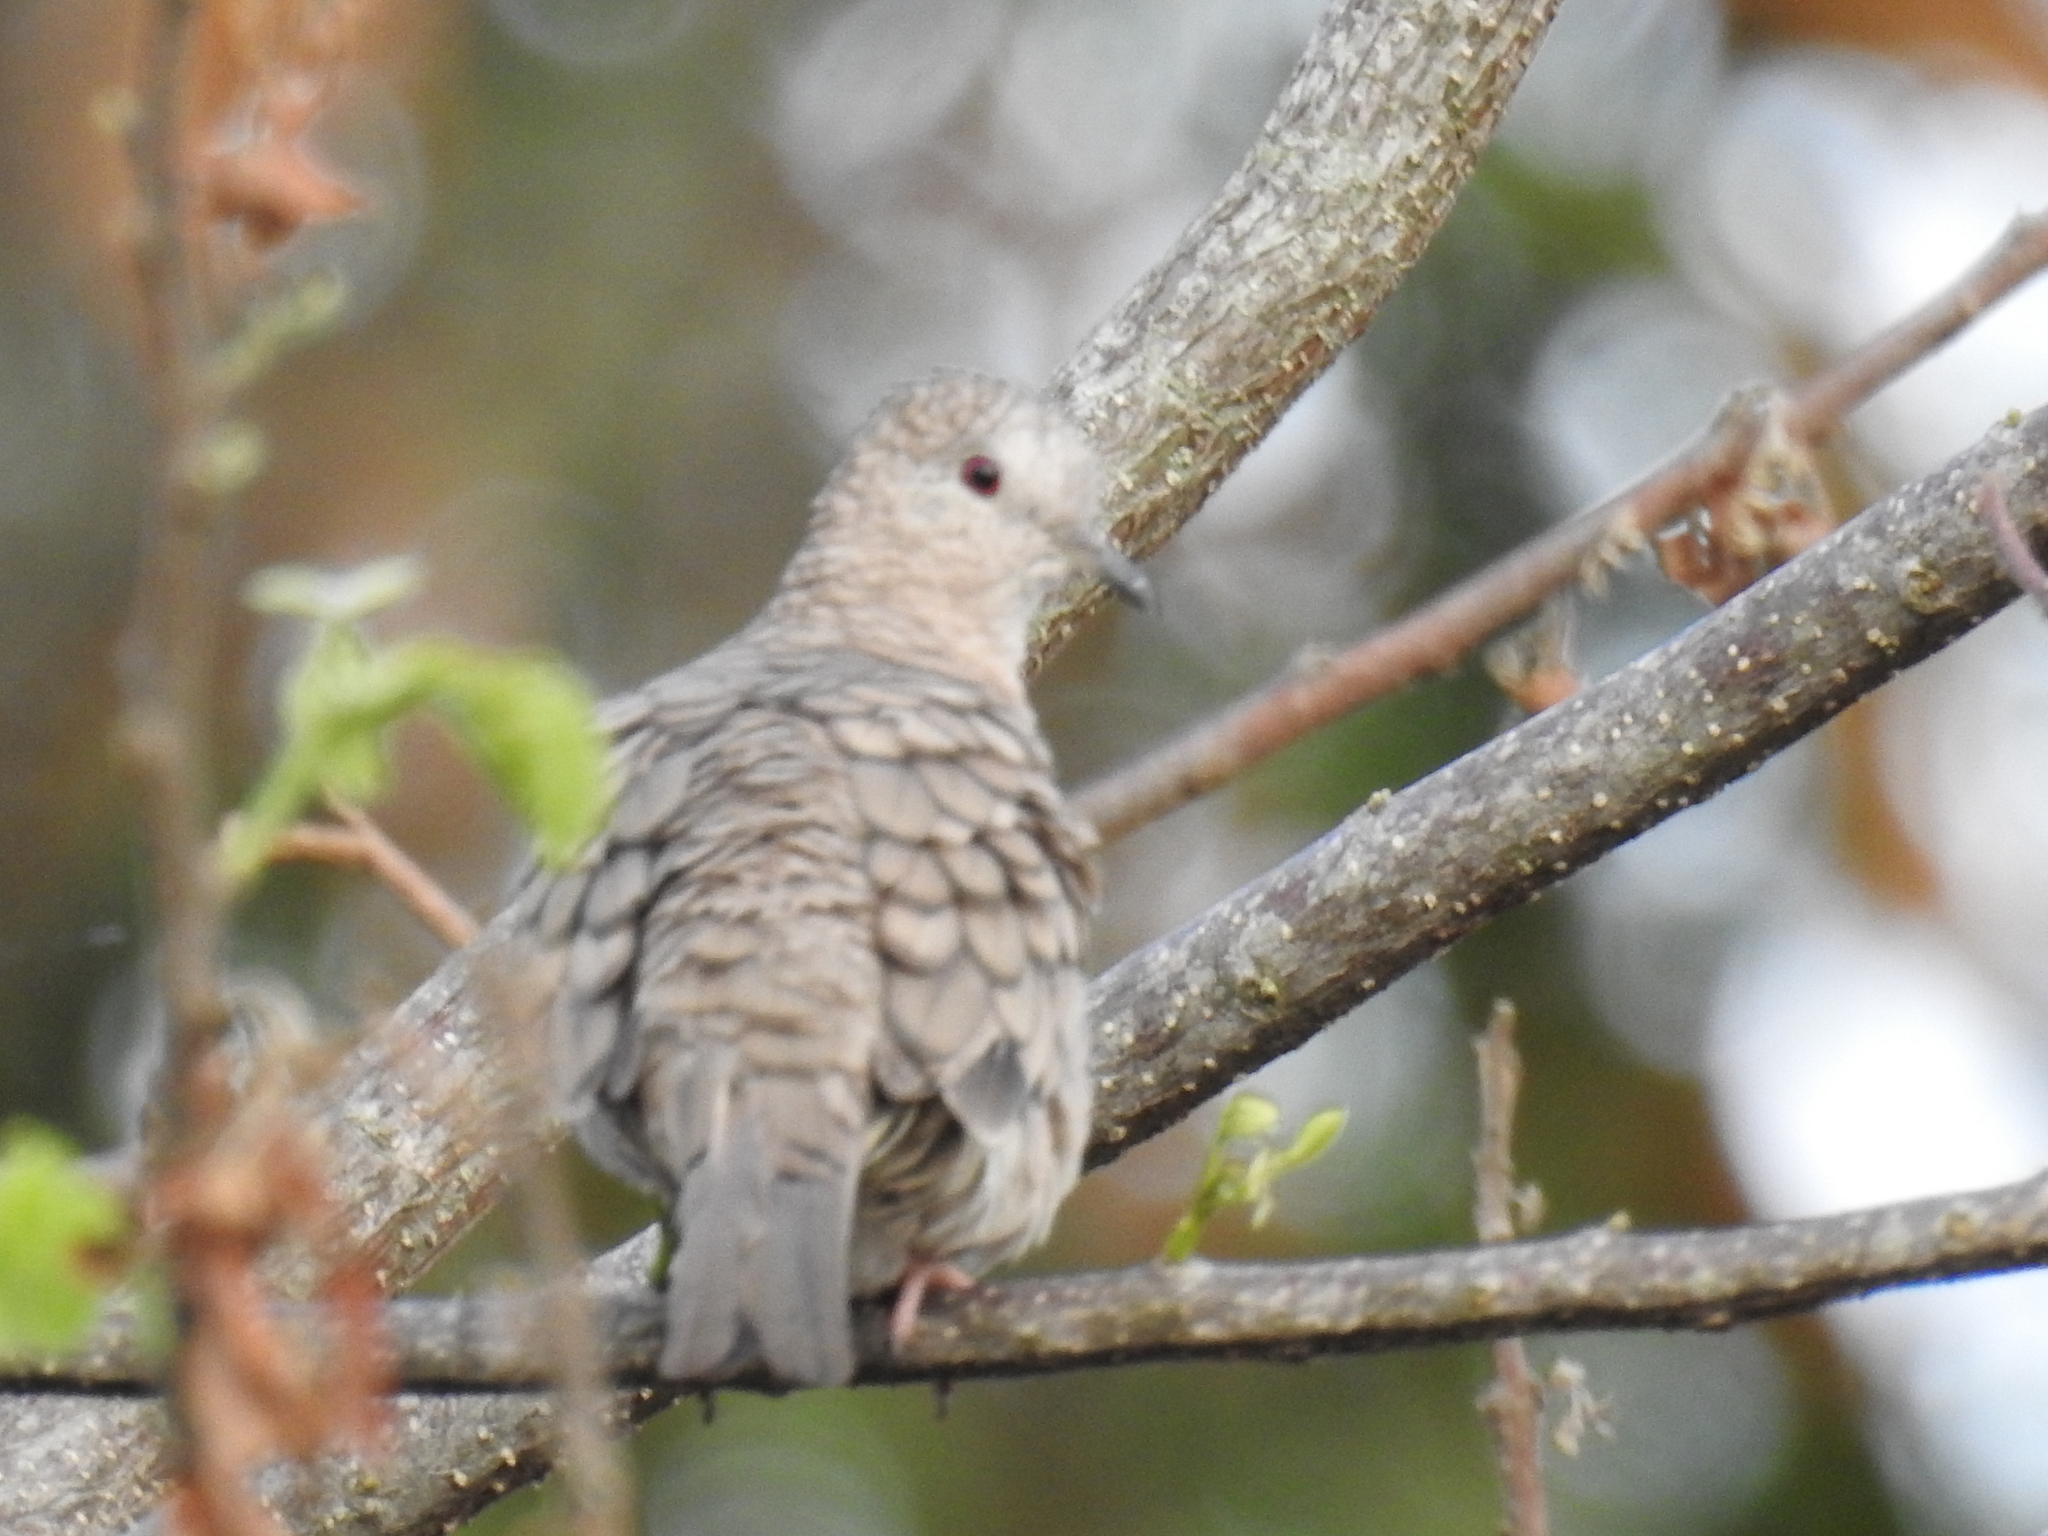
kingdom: Animalia
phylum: Chordata
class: Aves
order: Columbiformes
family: Columbidae
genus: Columbina
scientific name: Columbina inca
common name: Inca dove
